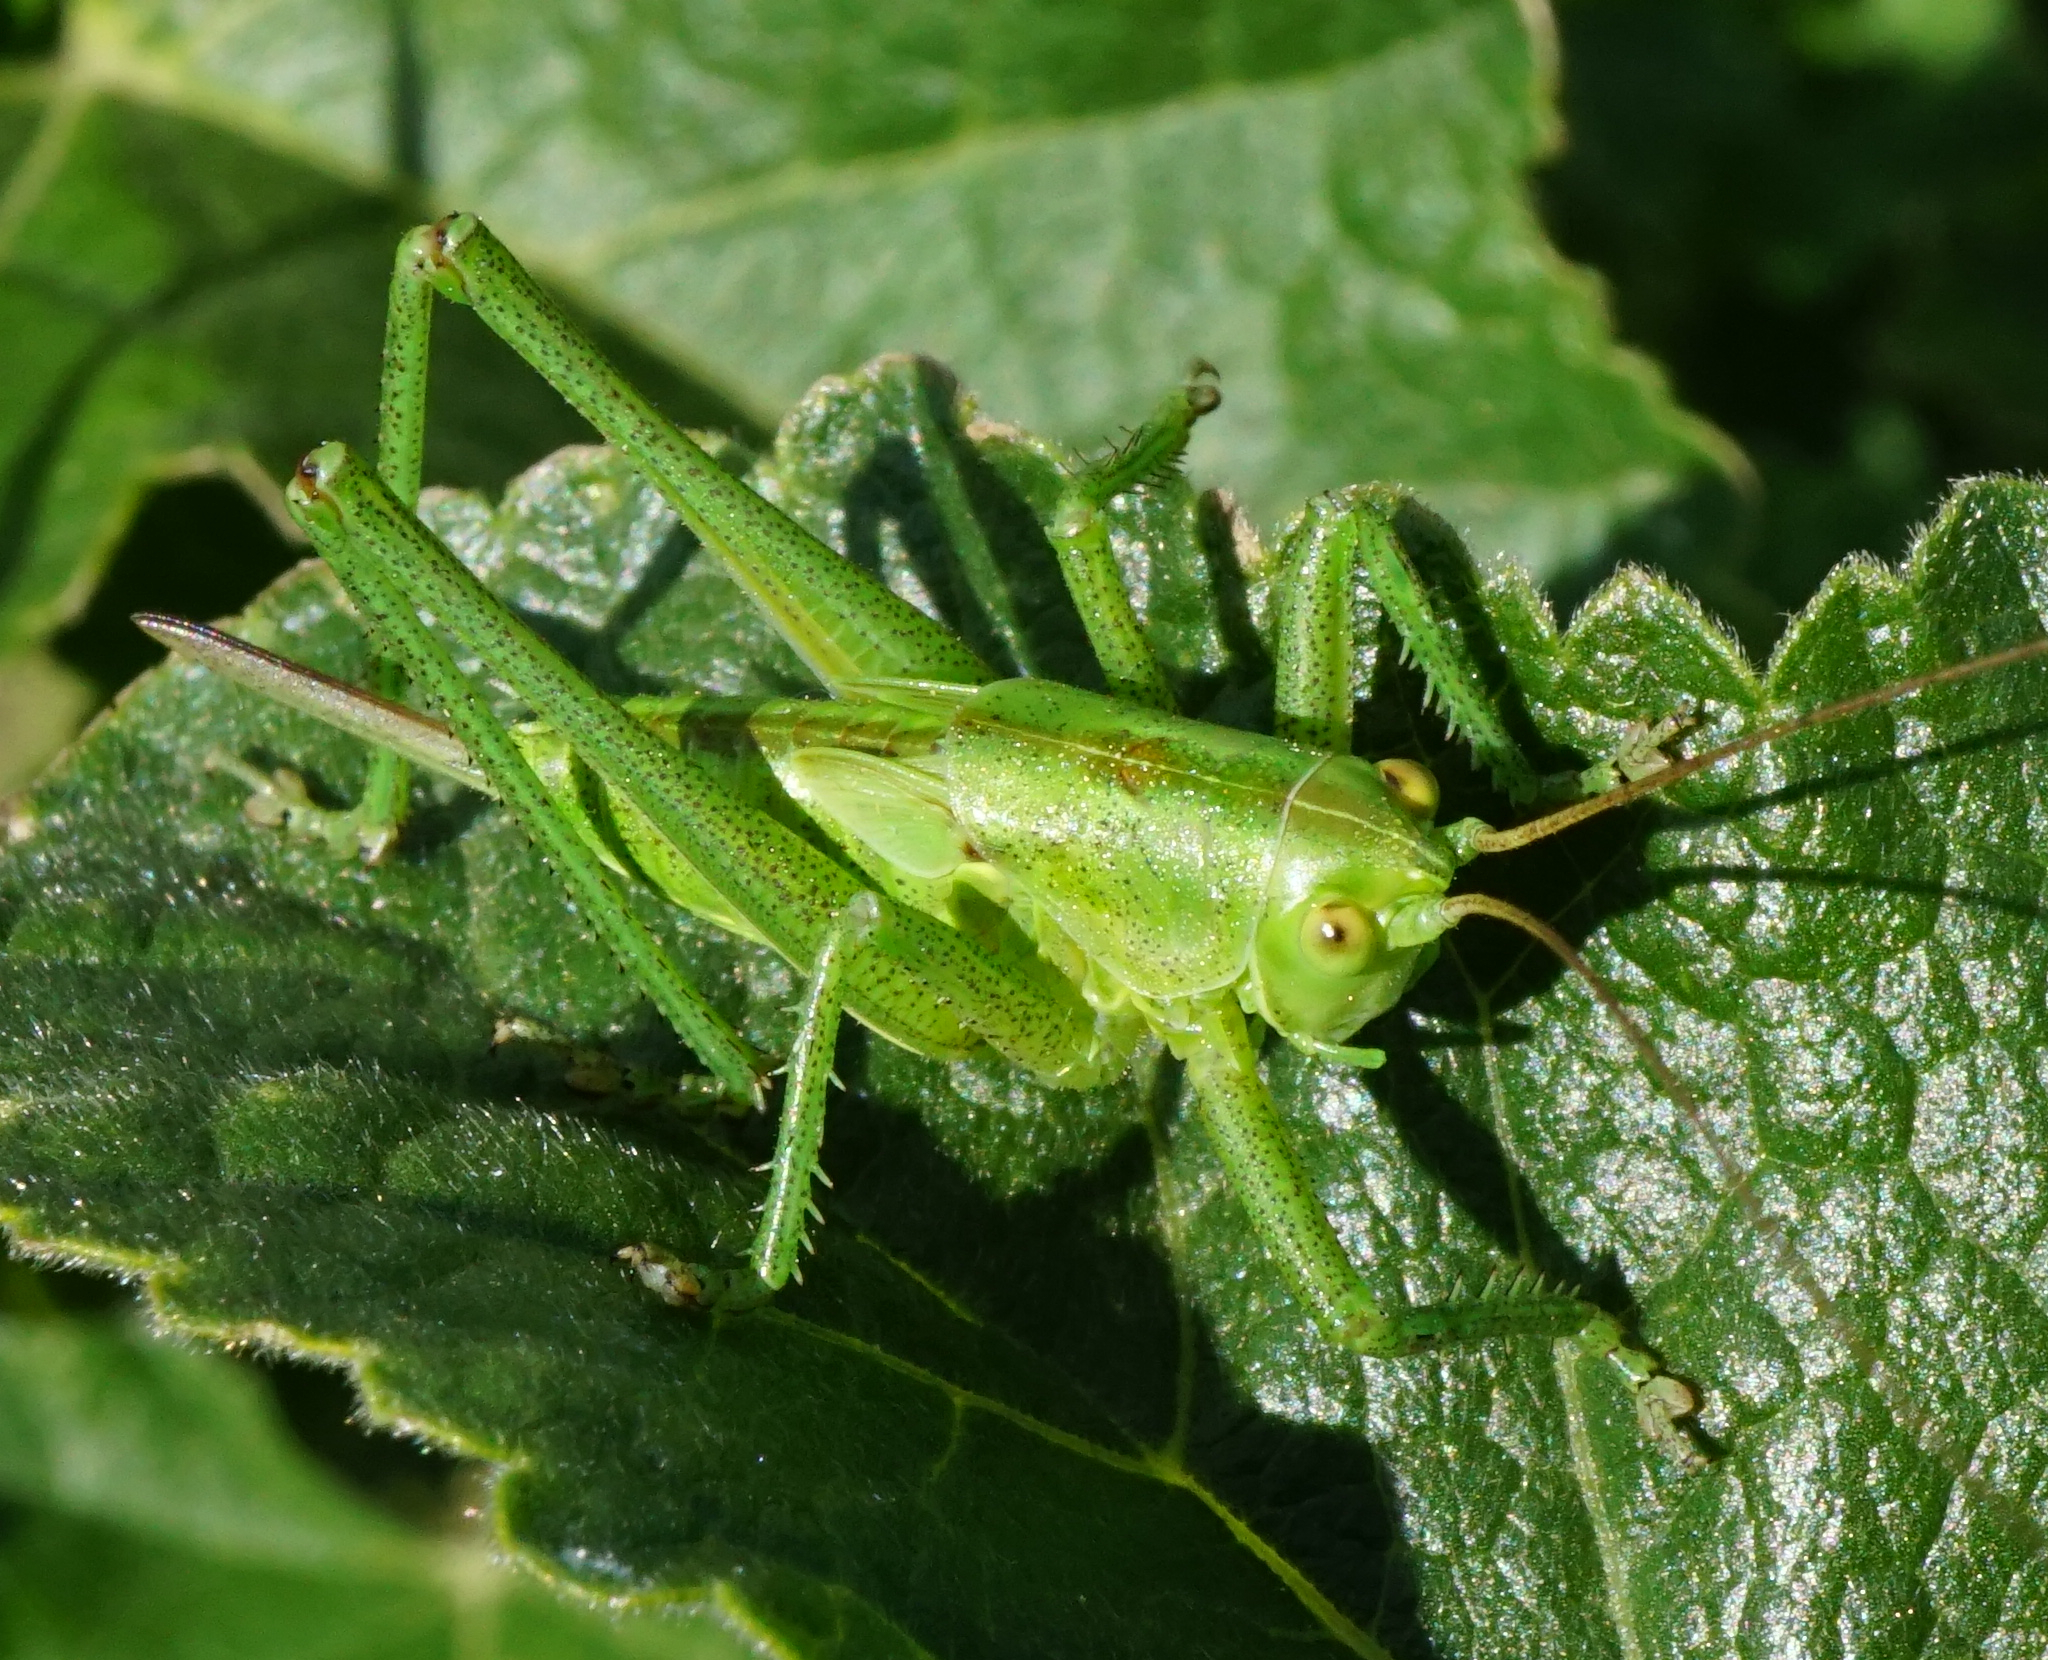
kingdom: Animalia
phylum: Arthropoda
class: Insecta
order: Orthoptera
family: Tettigoniidae
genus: Tettigonia
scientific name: Tettigonia viridissima
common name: Great green bush-cricket
